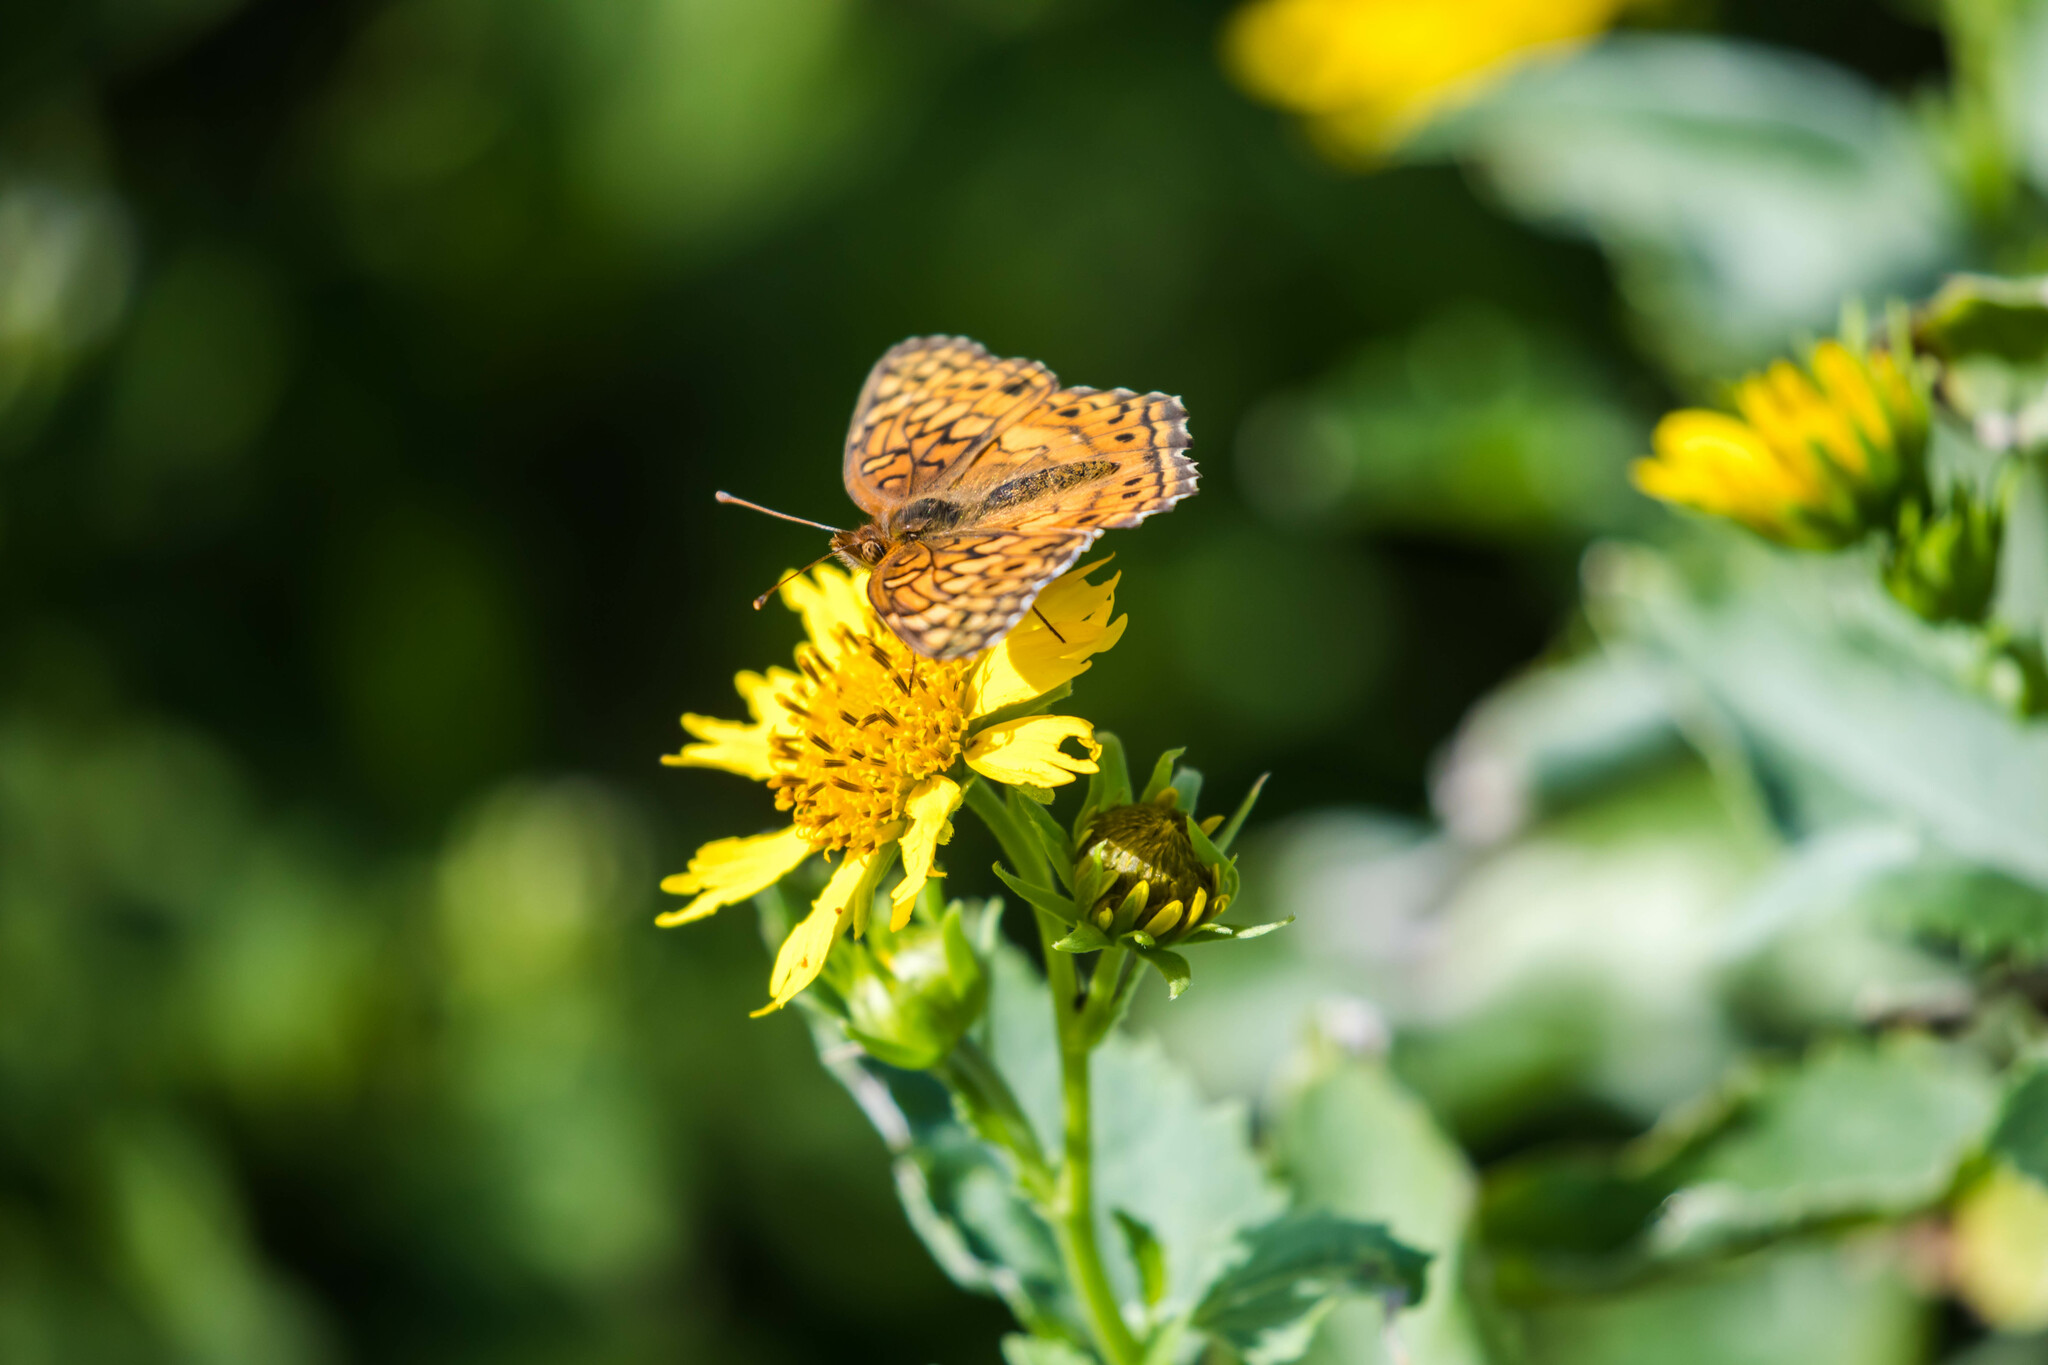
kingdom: Animalia
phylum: Arthropoda
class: Insecta
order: Lepidoptera
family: Nymphalidae
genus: Euptoieta
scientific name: Euptoieta claudia
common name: Variegated fritillary
